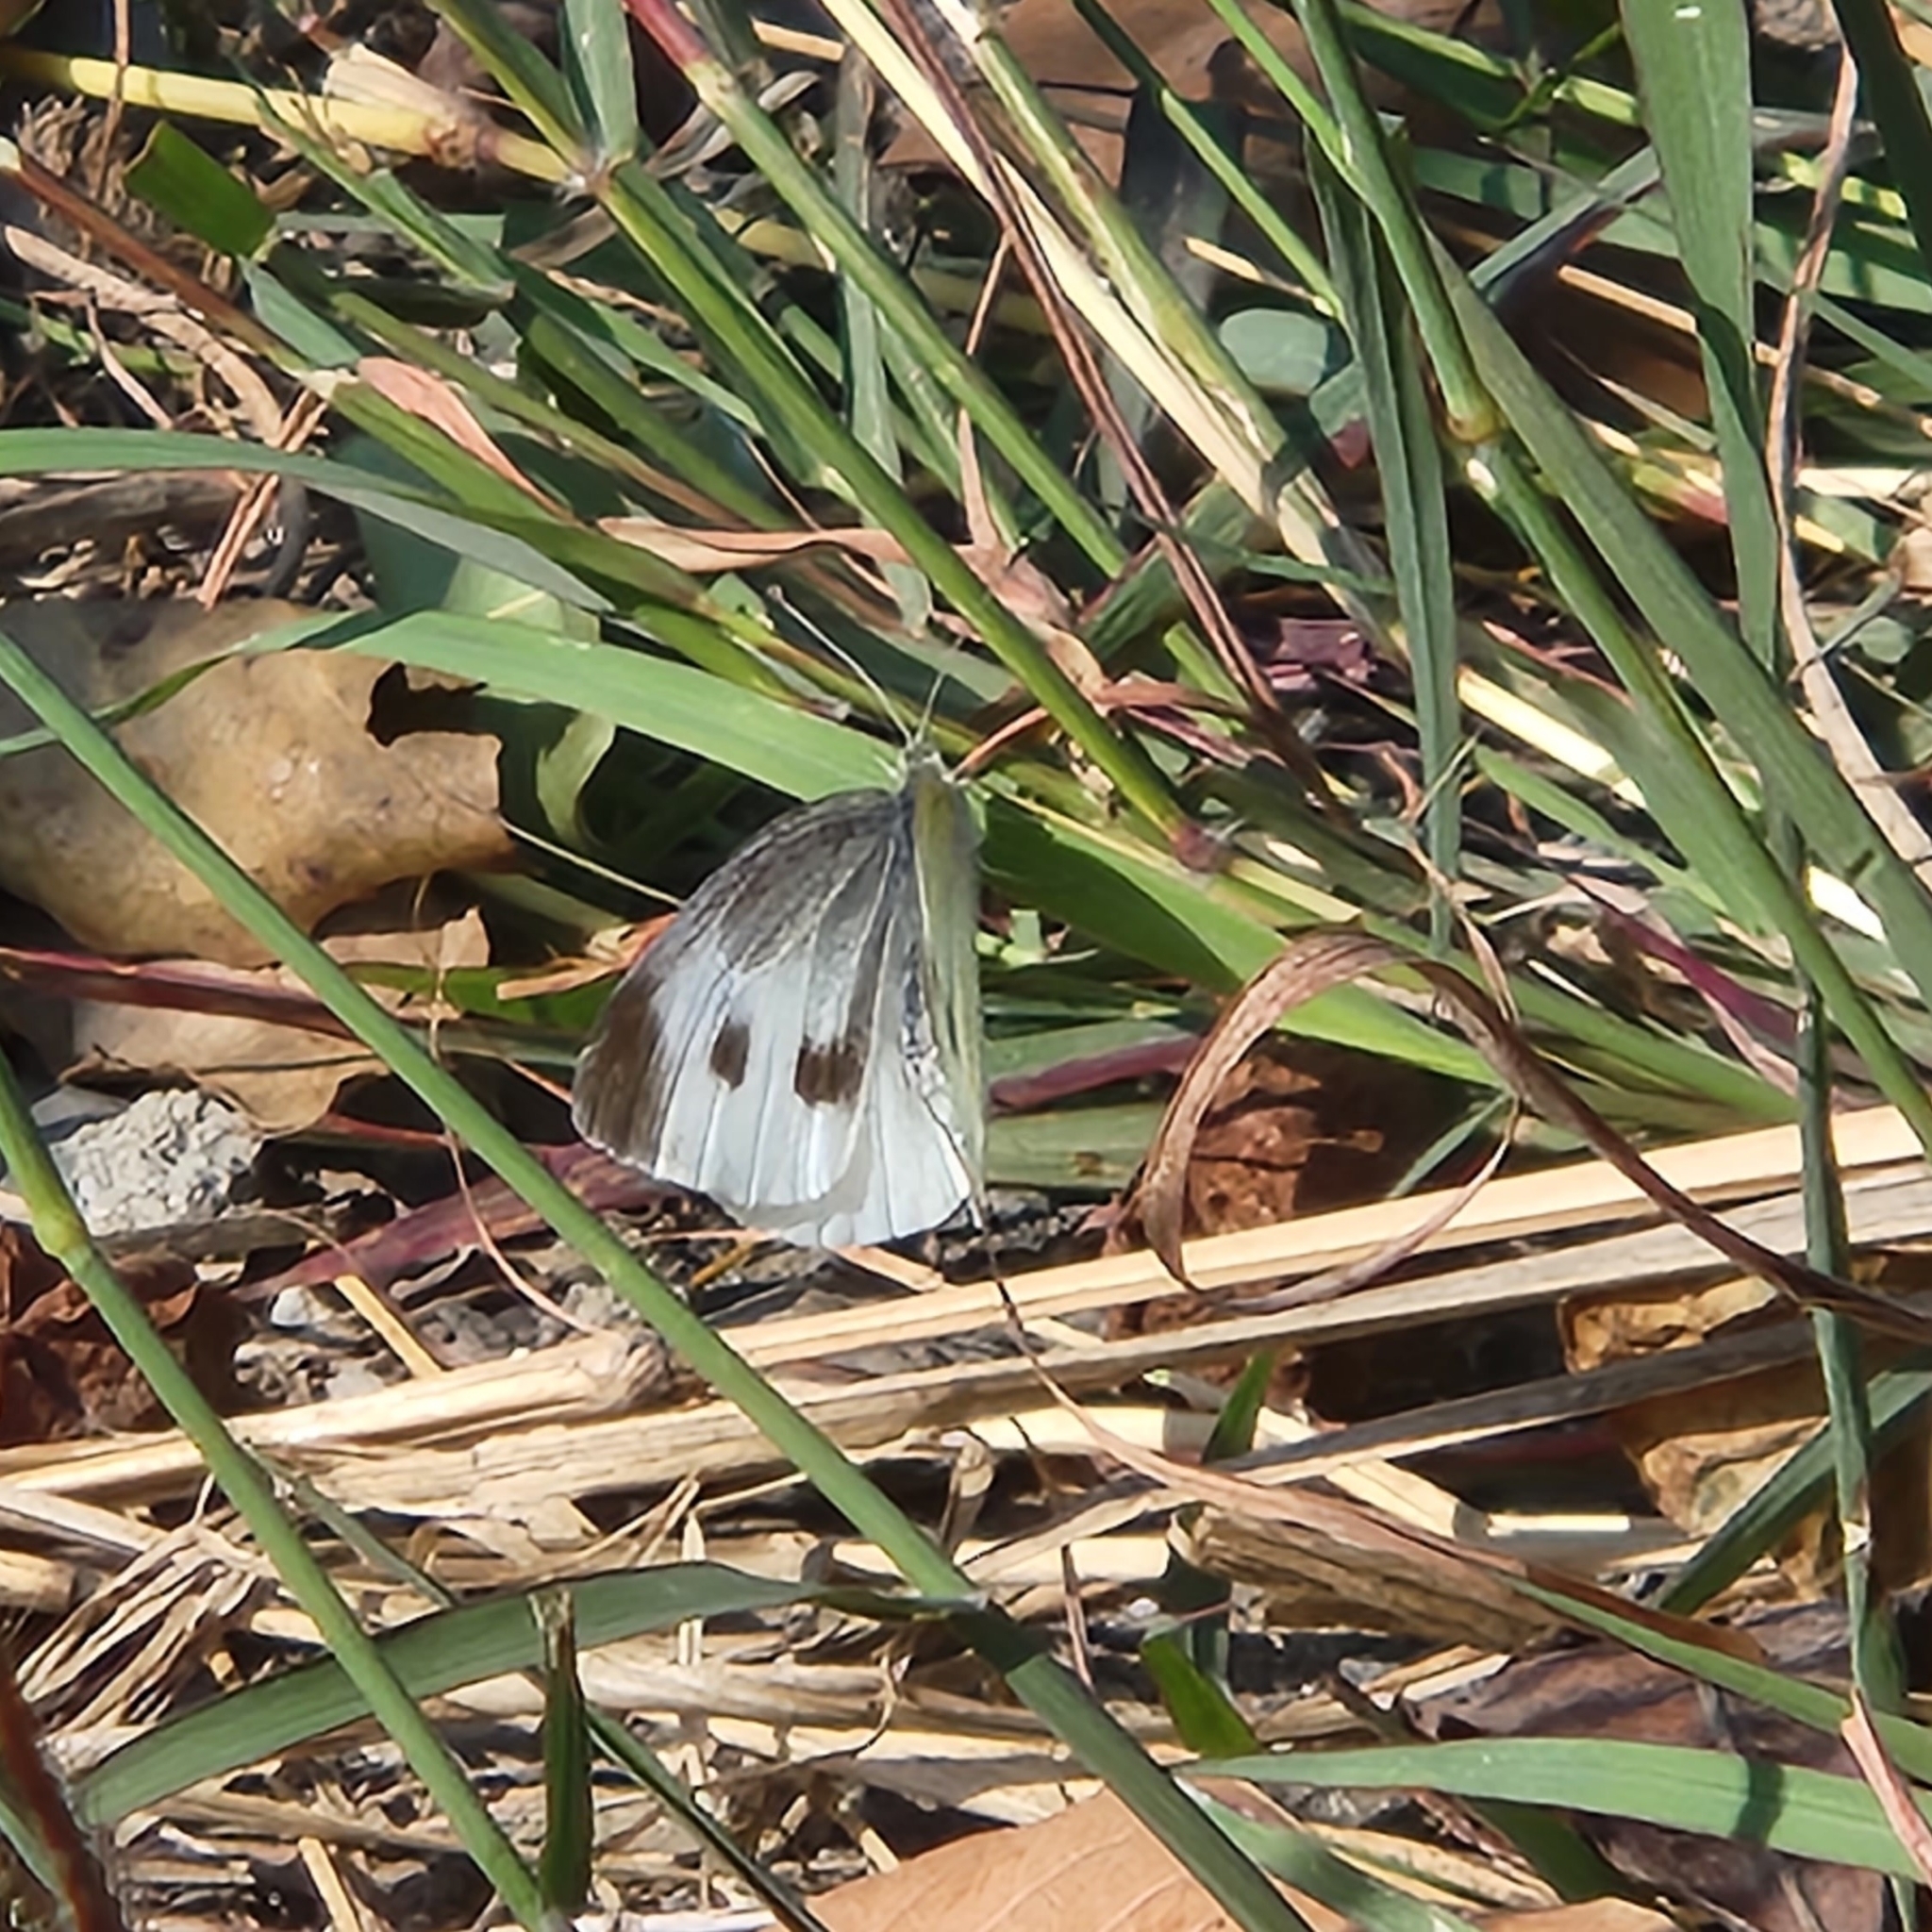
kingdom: Animalia
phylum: Arthropoda
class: Insecta
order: Lepidoptera
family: Pieridae
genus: Pieris
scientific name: Pieris rapae
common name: Small white
